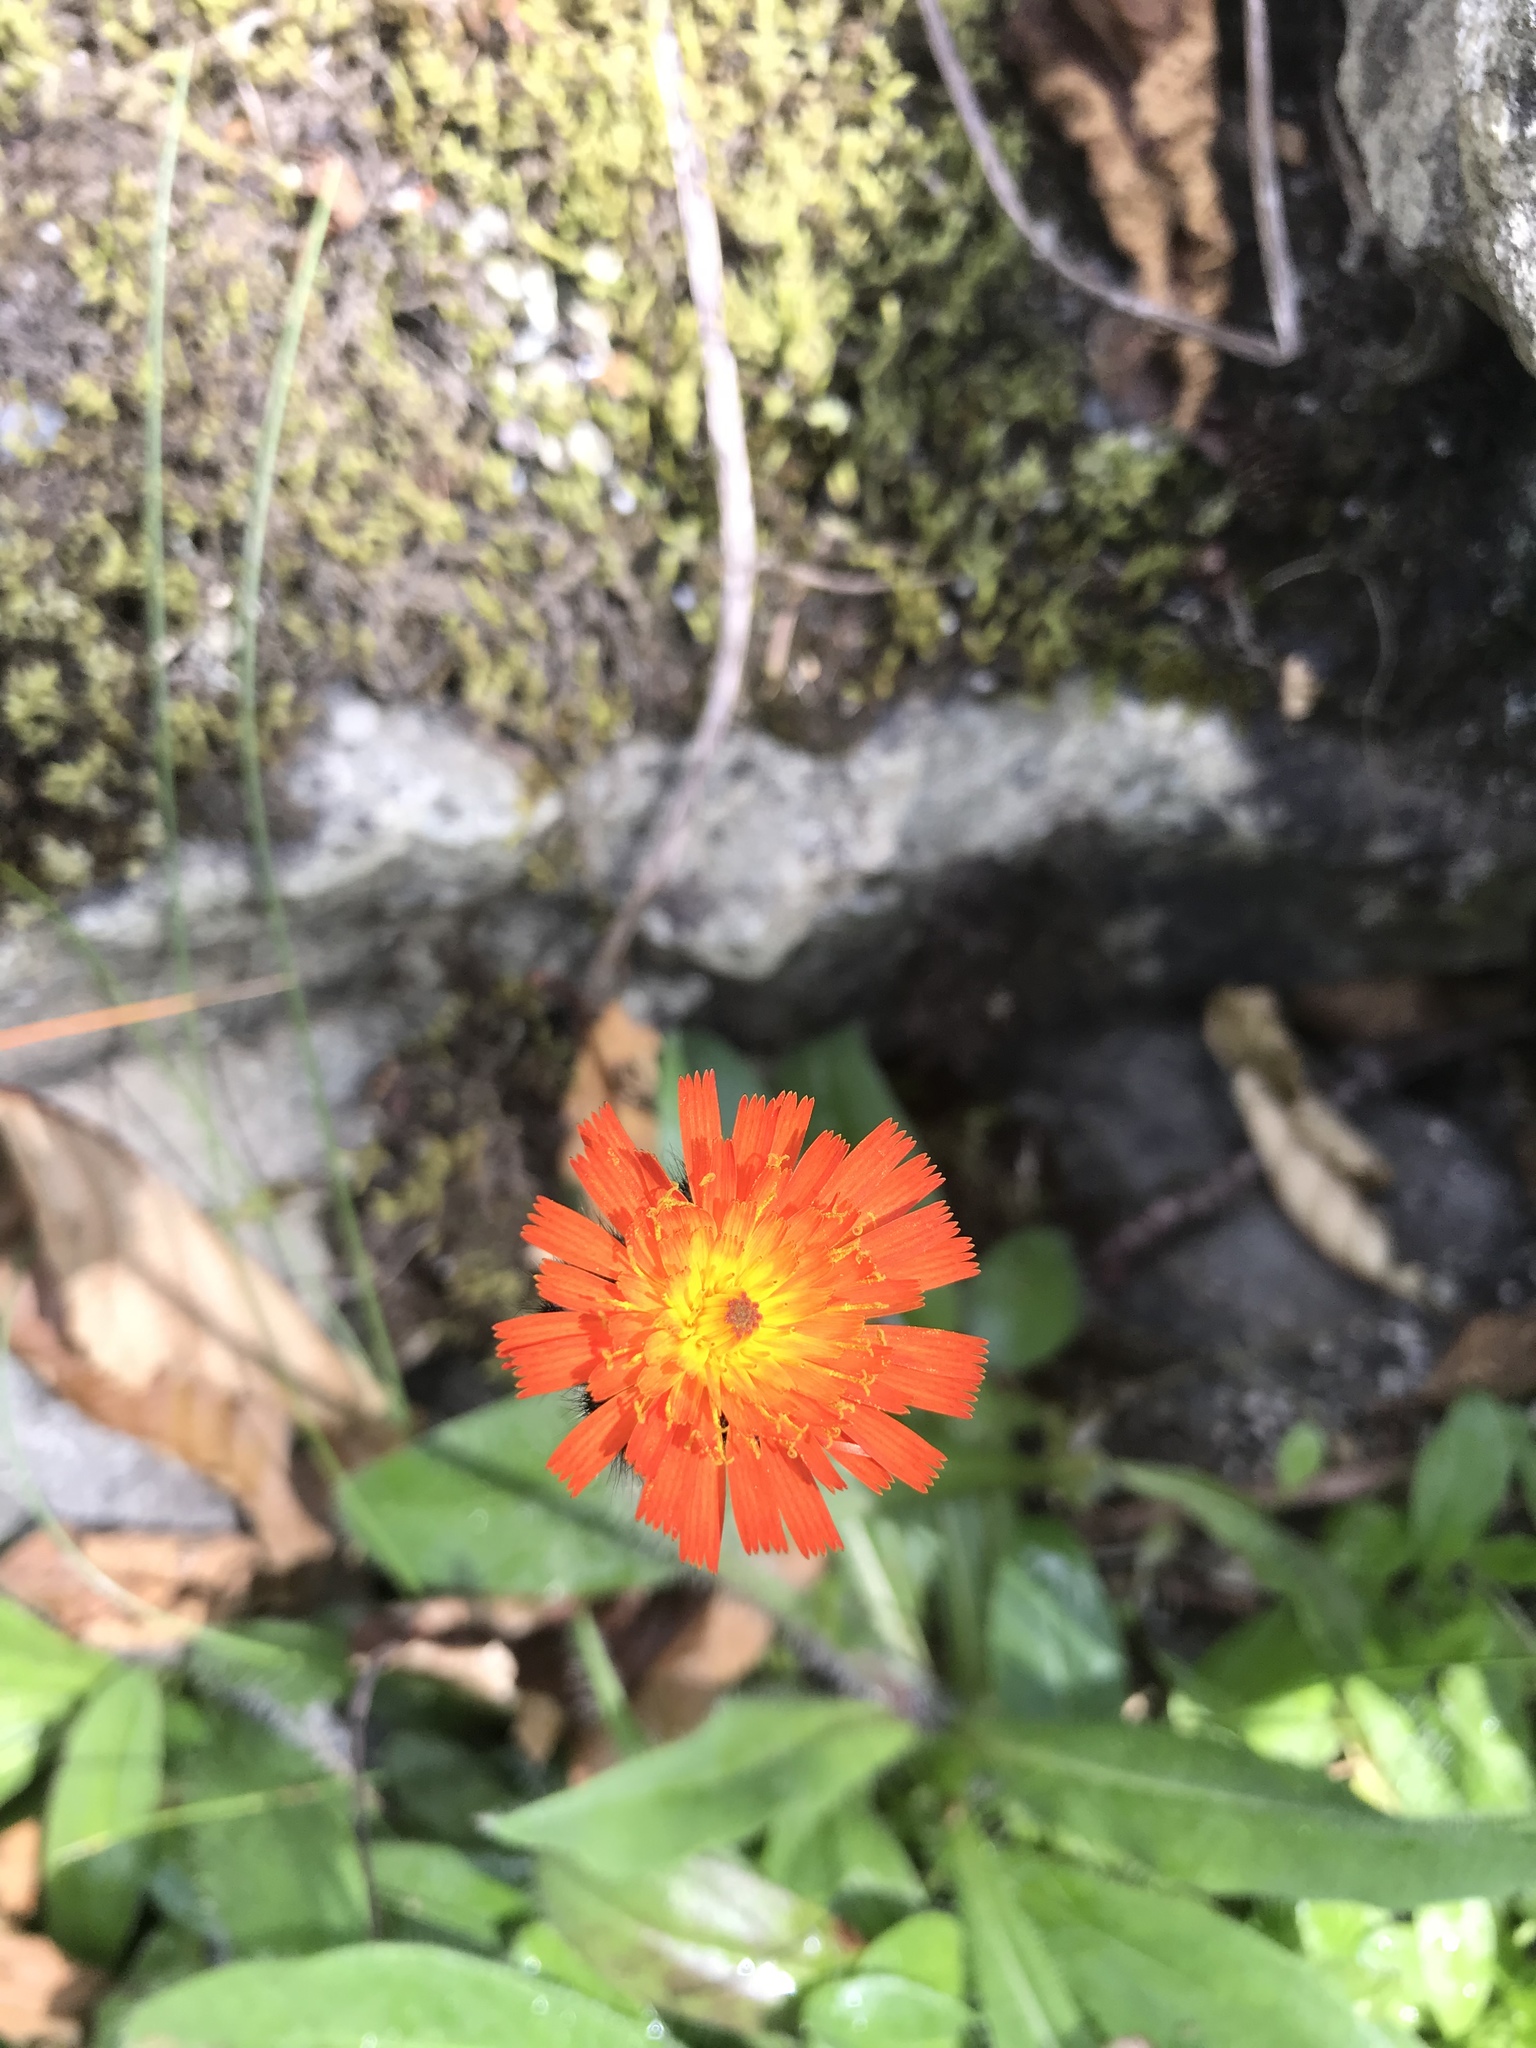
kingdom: Plantae
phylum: Tracheophyta
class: Magnoliopsida
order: Asterales
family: Asteraceae
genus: Pilosella
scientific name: Pilosella aurantiaca
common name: Fox-and-cubs
